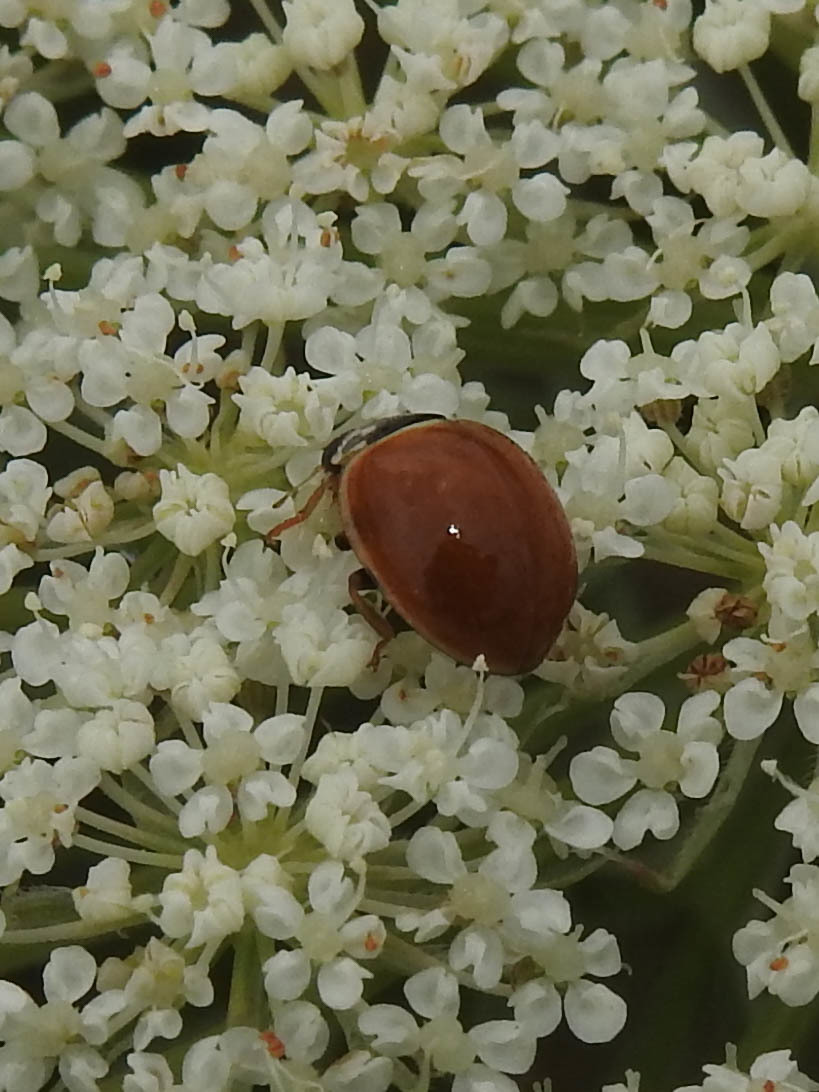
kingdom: Animalia
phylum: Arthropoda
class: Insecta
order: Coleoptera
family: Coccinellidae
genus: Cycloneda
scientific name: Cycloneda munda
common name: Polished lady beetle
